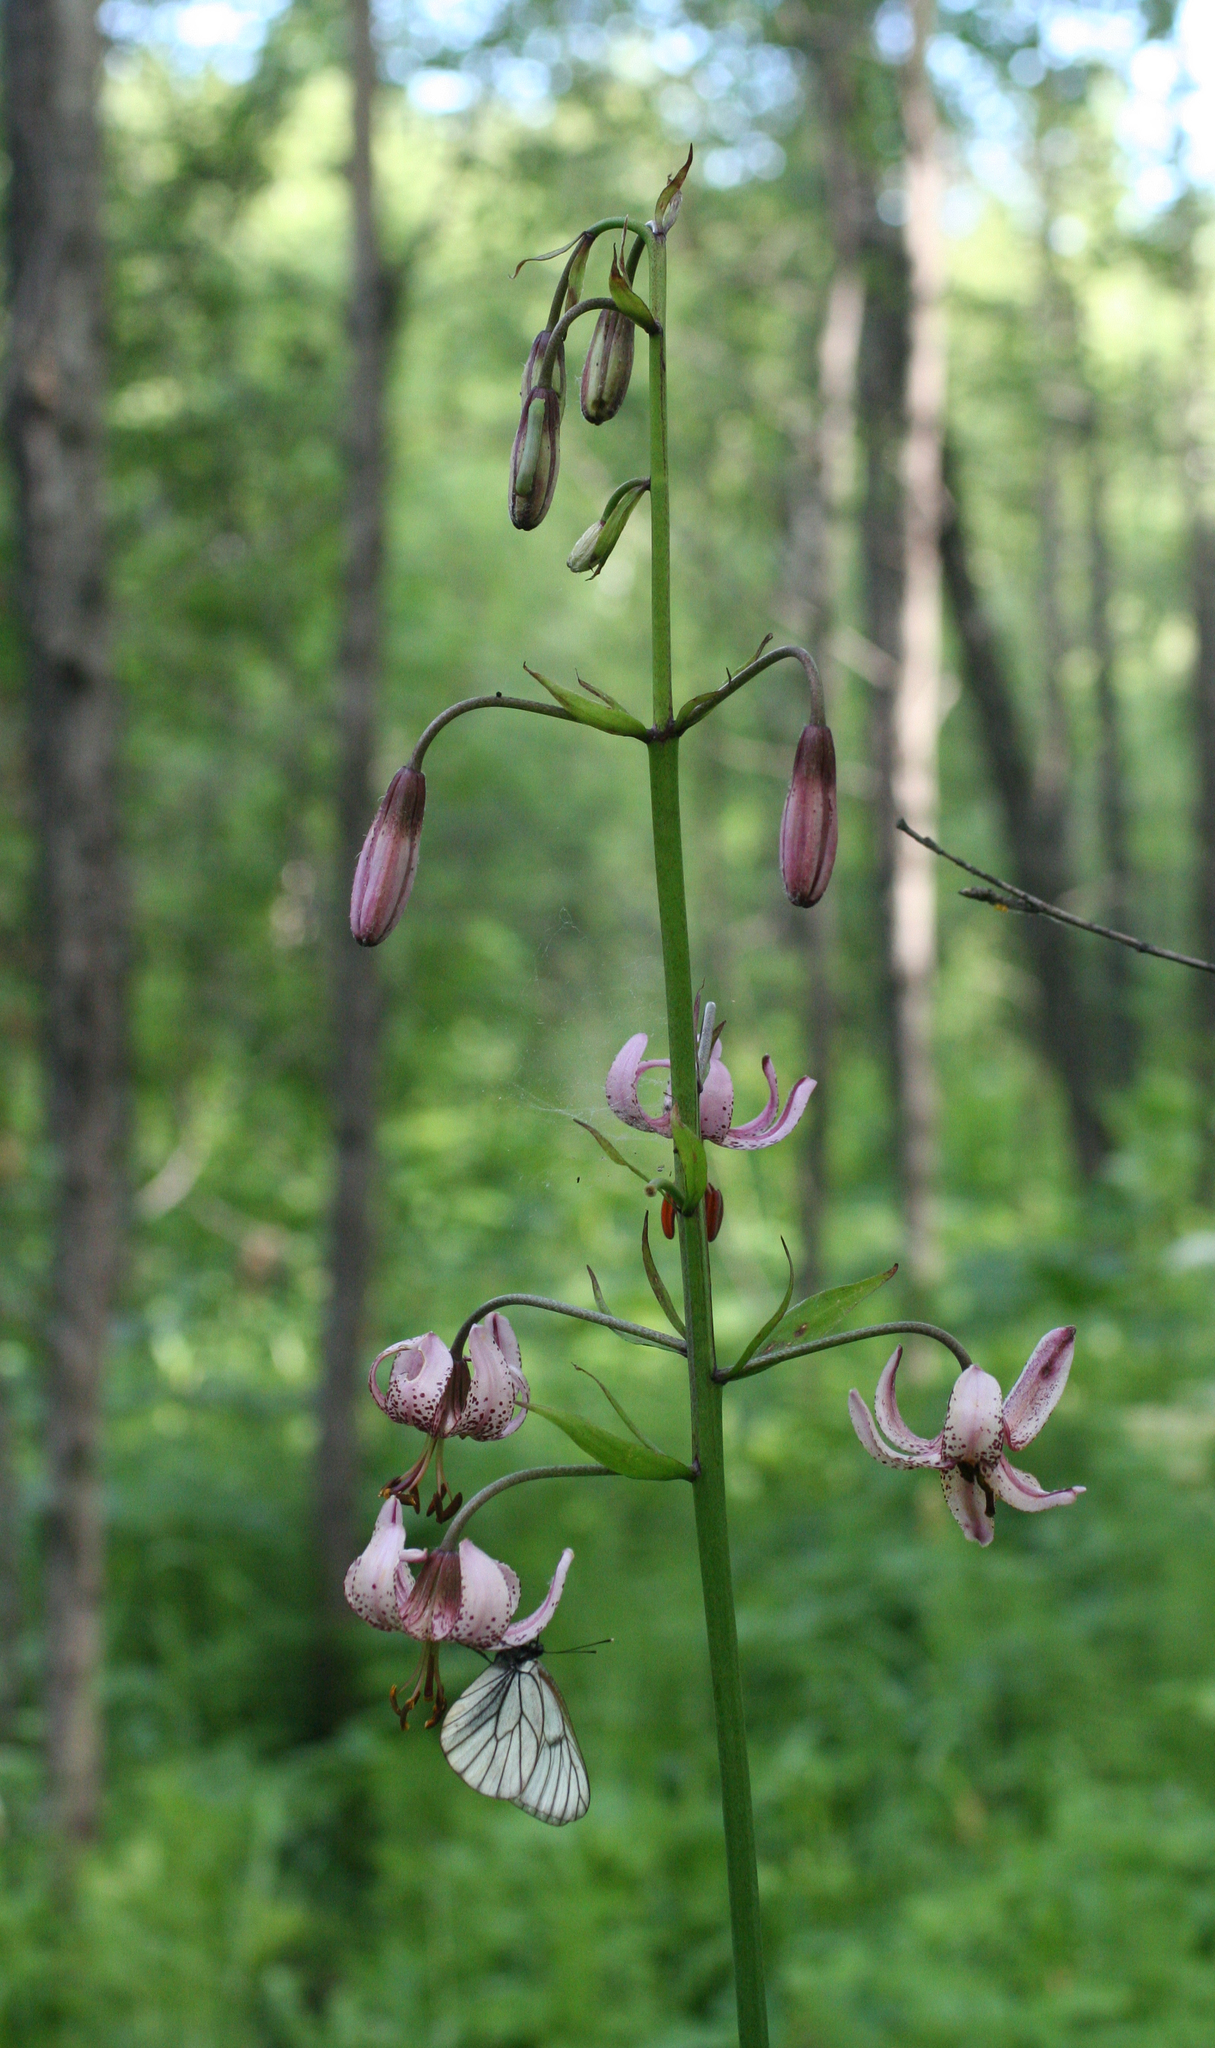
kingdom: Plantae
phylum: Tracheophyta
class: Liliopsida
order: Liliales
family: Liliaceae
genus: Lilium
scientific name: Lilium martagon
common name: Martagon lily
